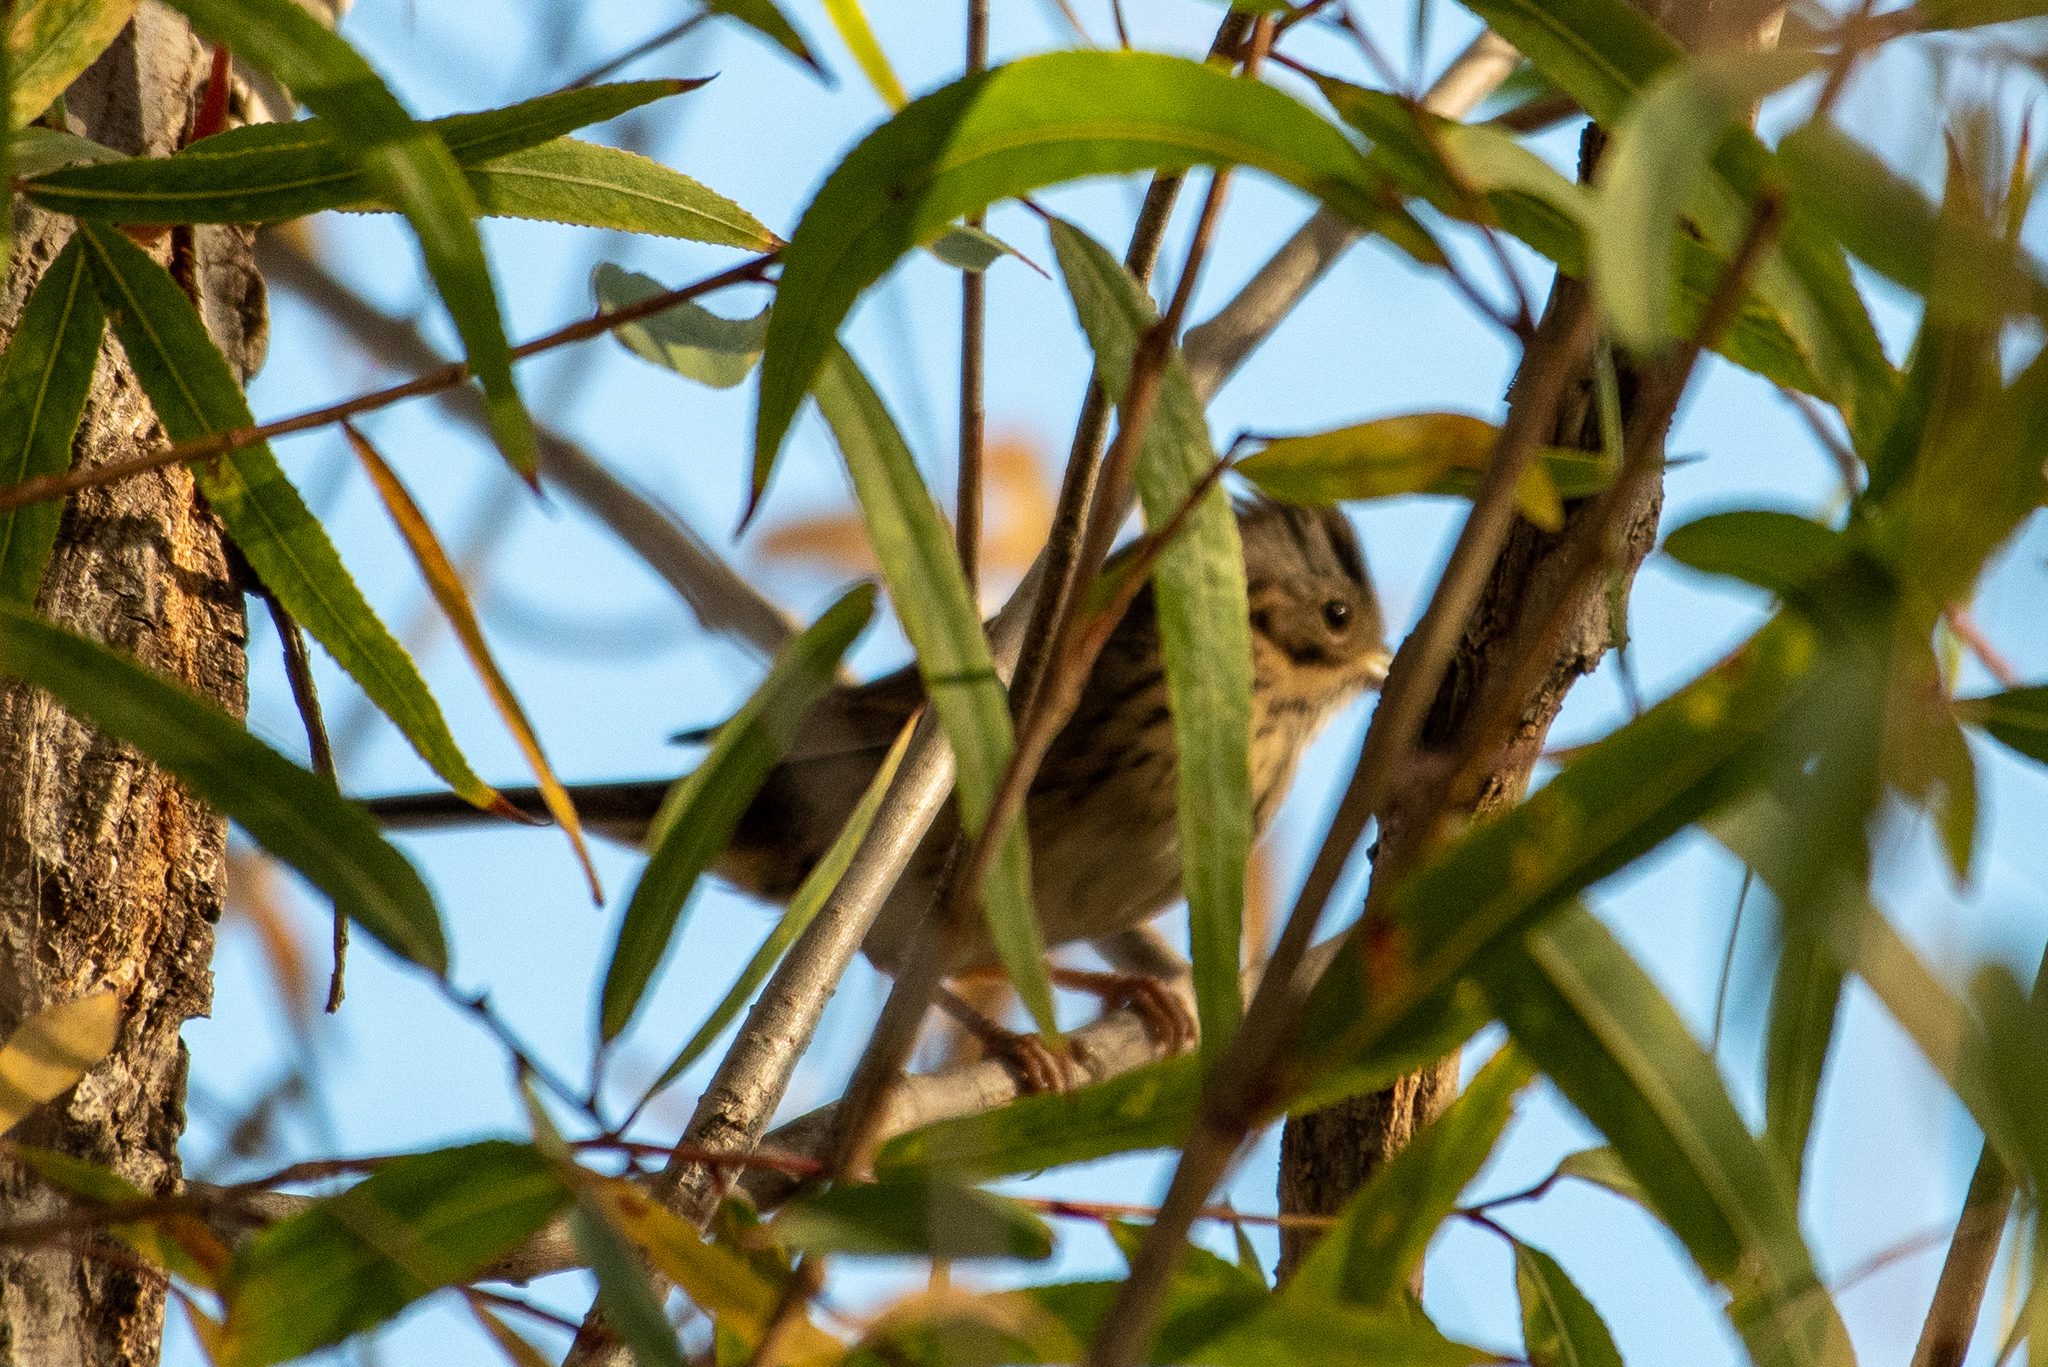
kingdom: Animalia
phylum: Chordata
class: Aves
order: Passeriformes
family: Passerellidae
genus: Melospiza
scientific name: Melospiza lincolnii
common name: Lincoln's sparrow
